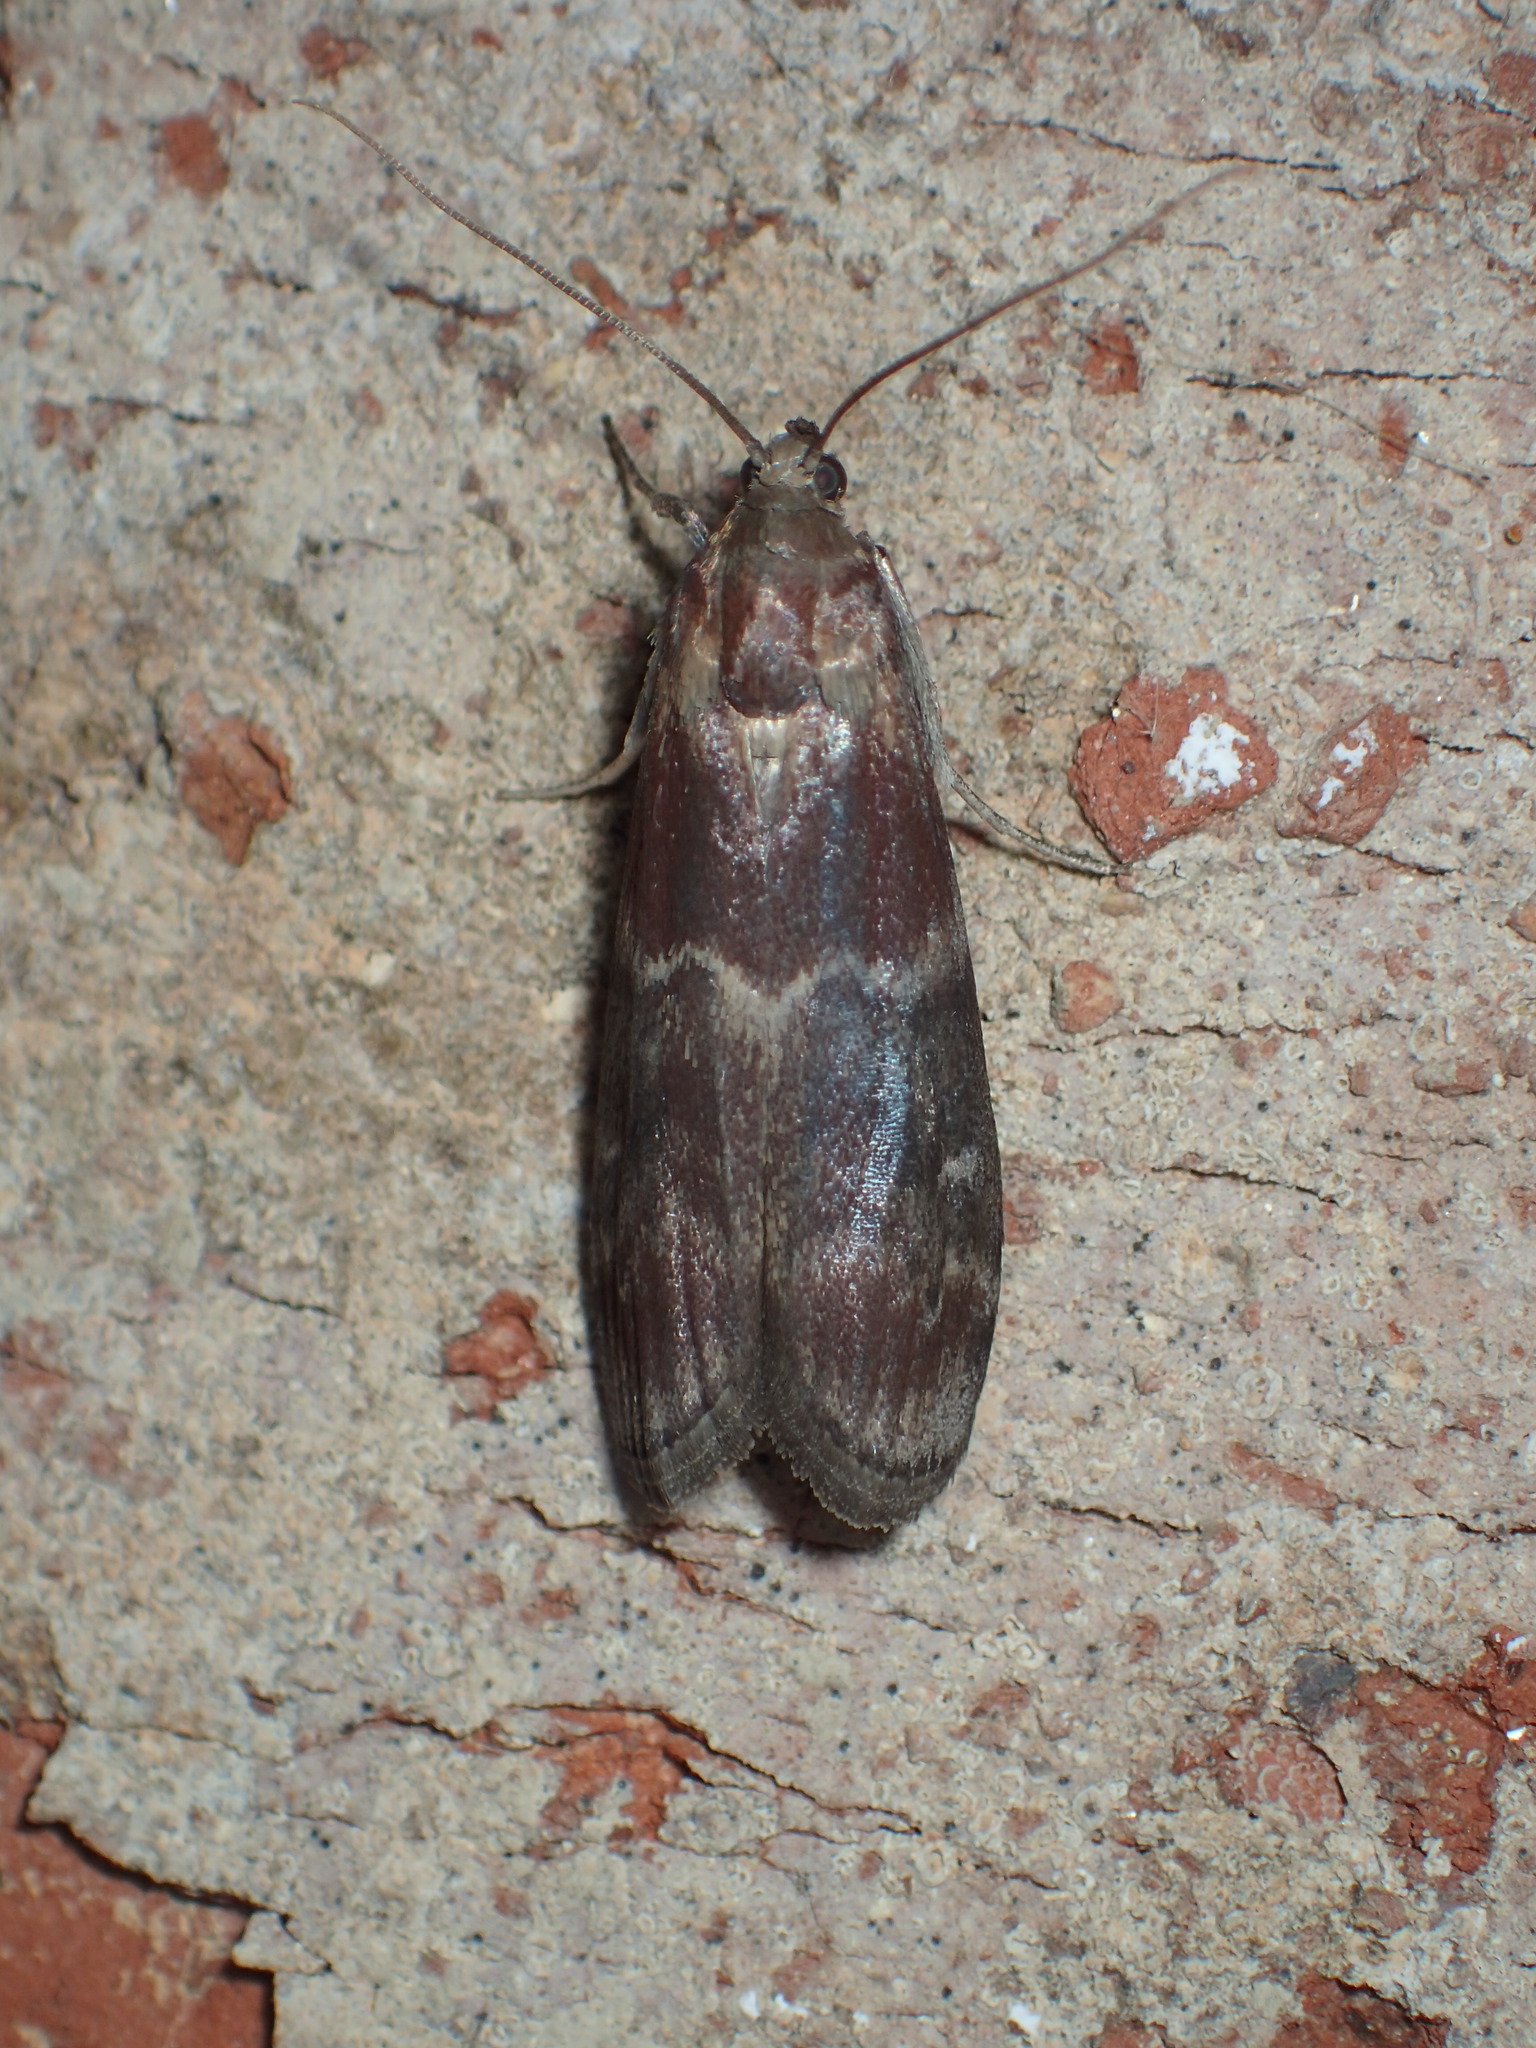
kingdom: Animalia
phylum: Arthropoda
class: Insecta
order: Lepidoptera
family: Pyralidae
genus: Euzophera
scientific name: Euzophera ostricolorella
